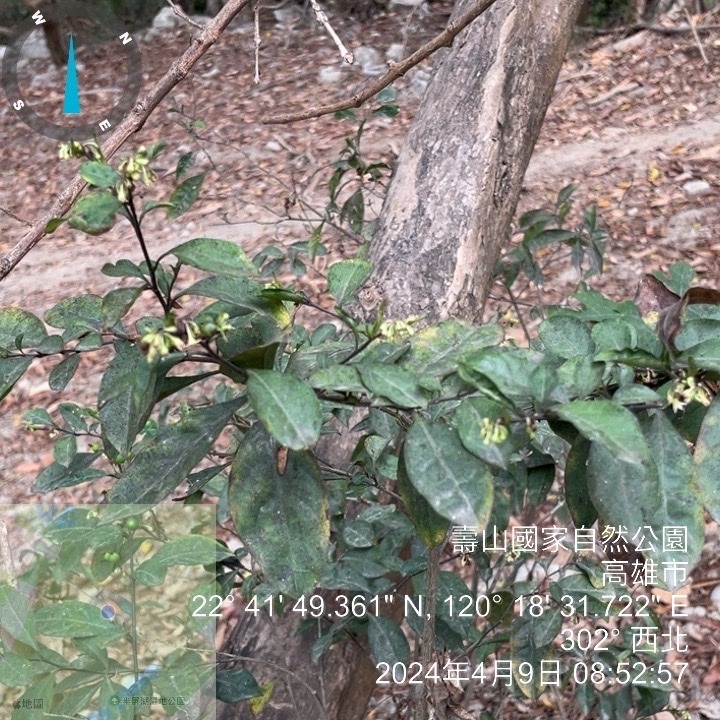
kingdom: Plantae
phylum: Tracheophyta
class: Magnoliopsida
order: Solanales
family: Solanaceae
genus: Solanum
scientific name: Solanum diphyllum
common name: Twoleaf nightshade
